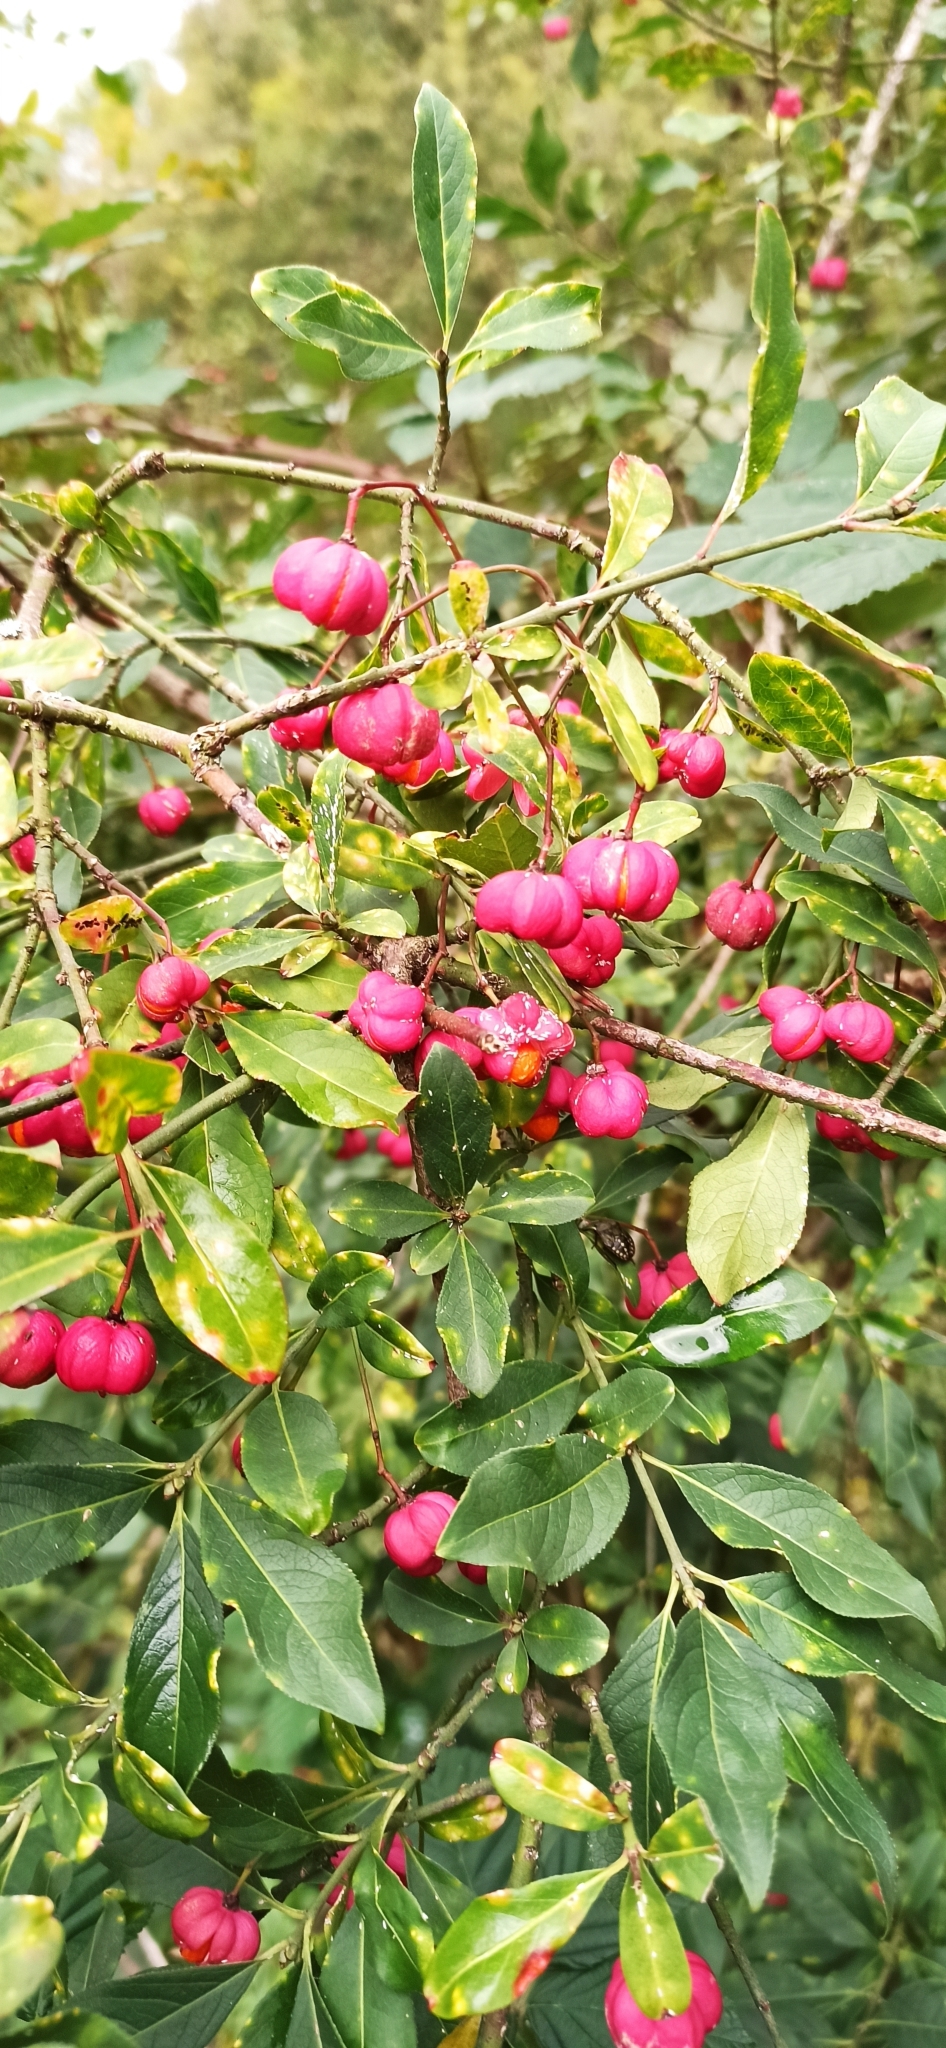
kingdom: Plantae
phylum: Tracheophyta
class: Magnoliopsida
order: Celastrales
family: Celastraceae
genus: Euonymus
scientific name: Euonymus europaeus
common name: Spindle
